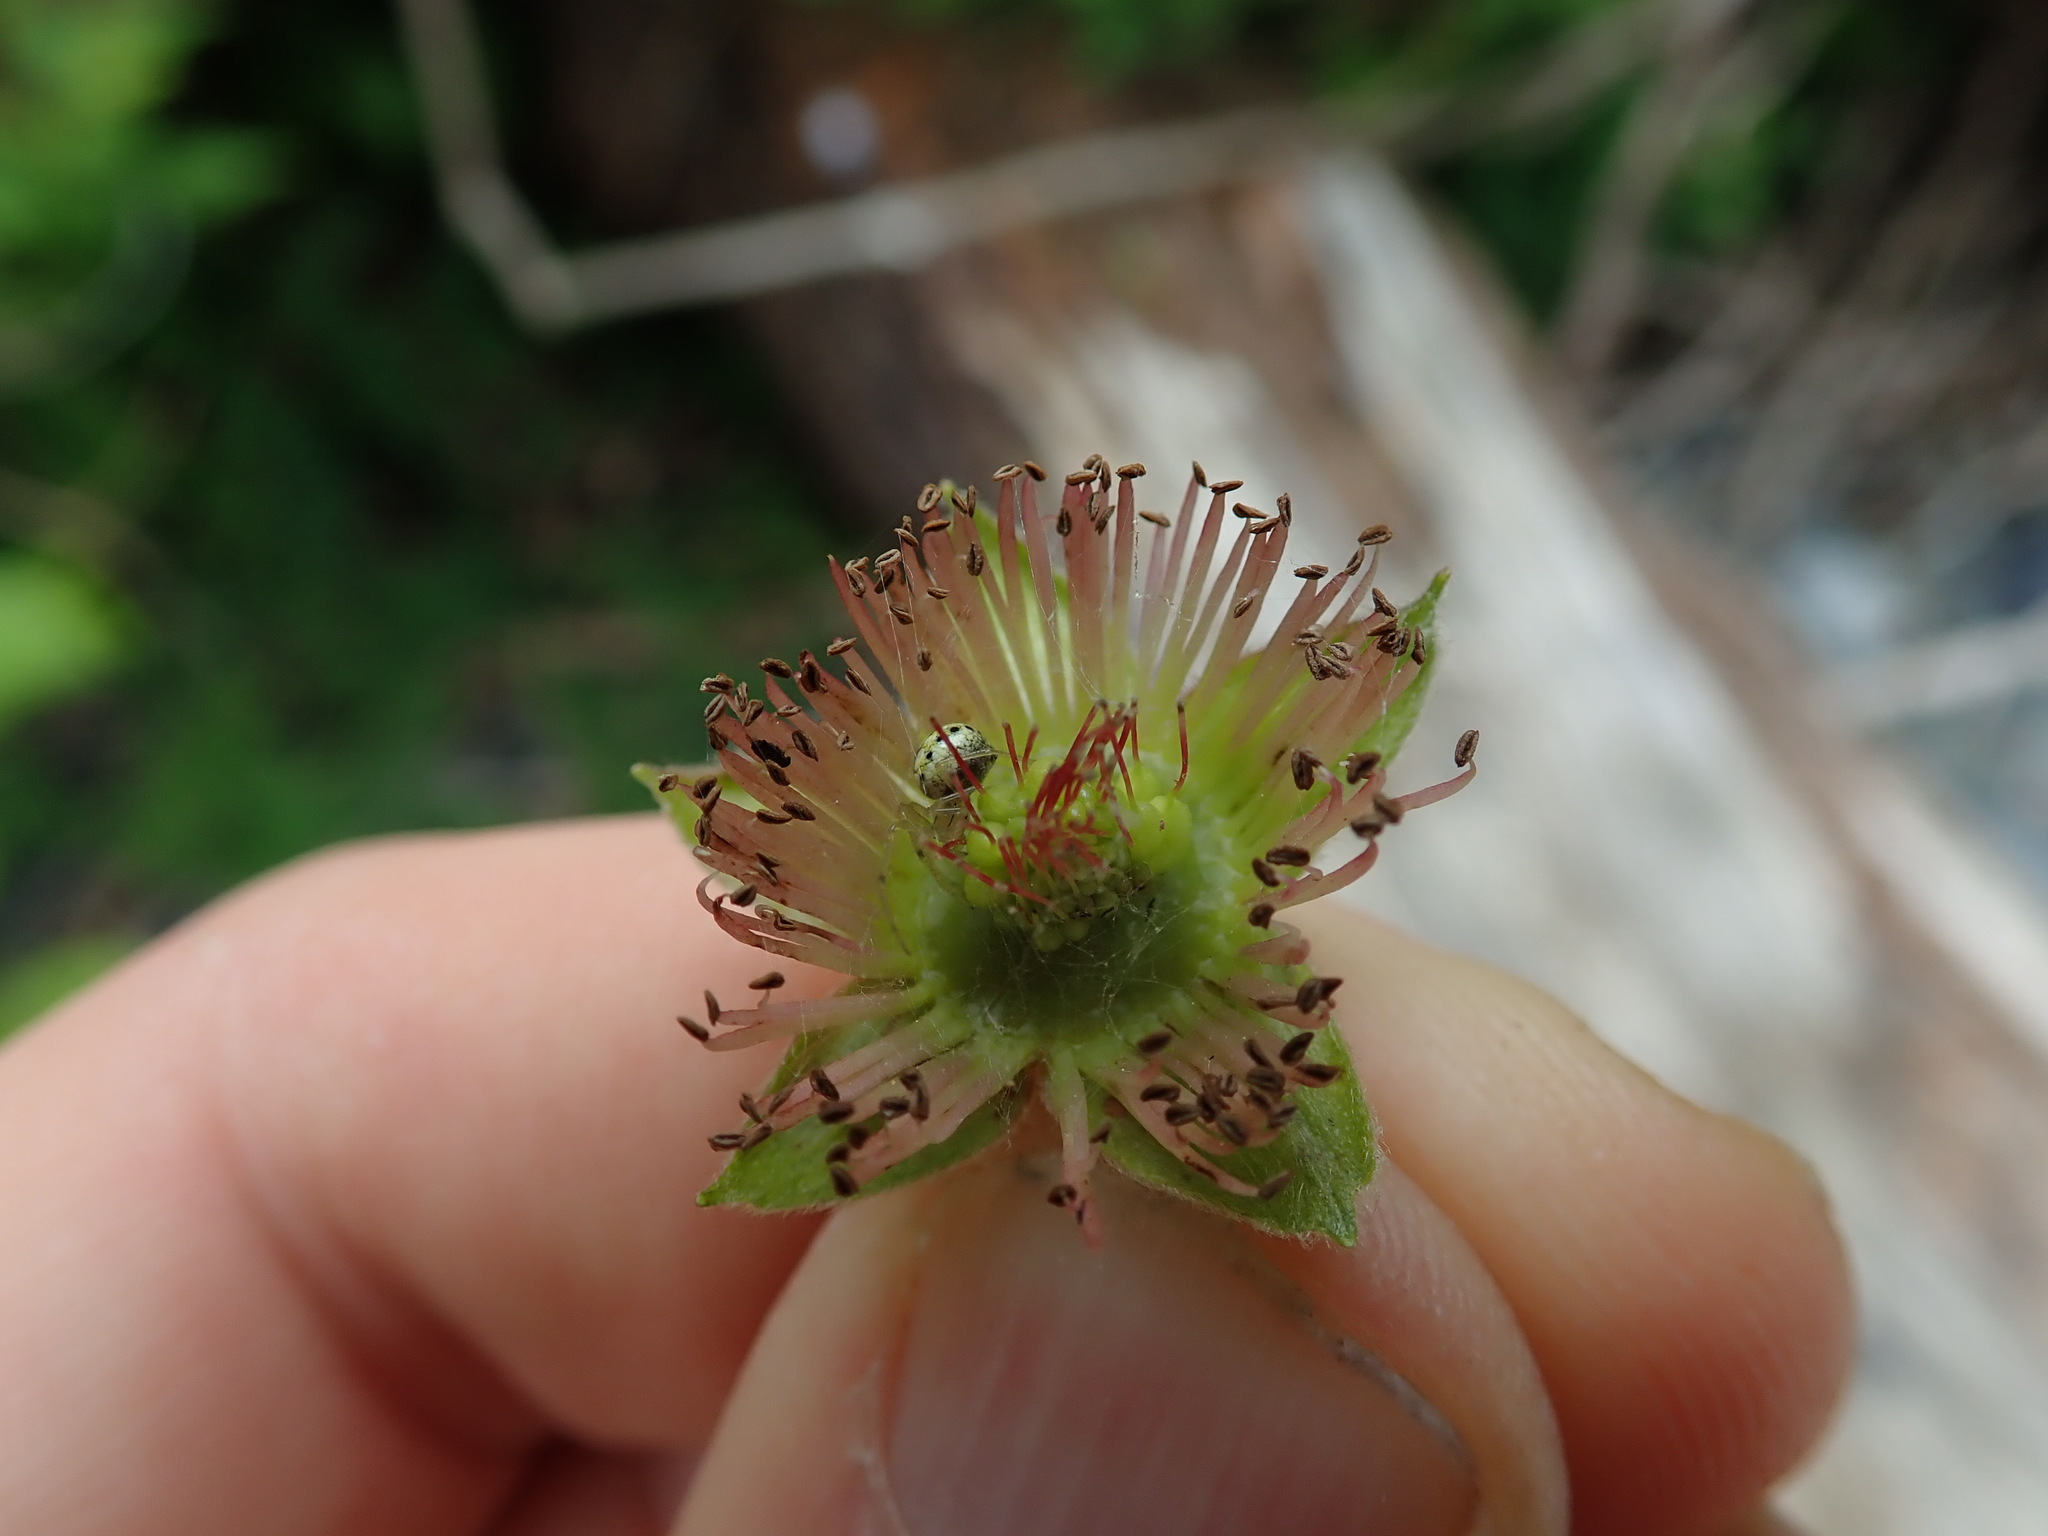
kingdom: Plantae
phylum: Tracheophyta
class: Magnoliopsida
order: Rosales
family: Rosaceae
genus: Rubus
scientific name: Rubus spectabilis
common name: Salmonberry
